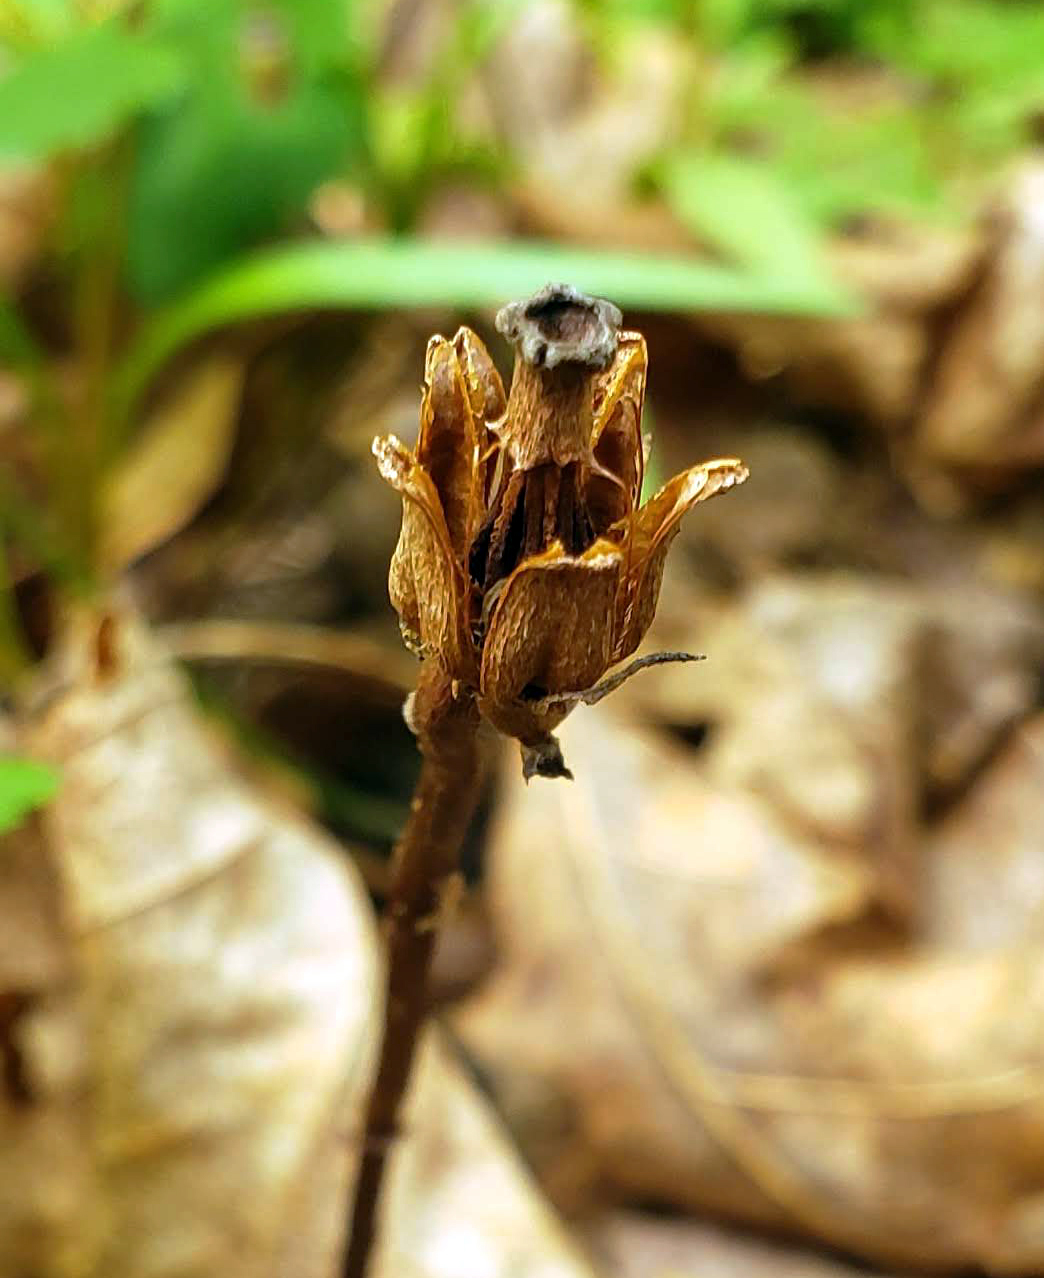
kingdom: Plantae
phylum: Tracheophyta
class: Magnoliopsida
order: Ericales
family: Ericaceae
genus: Monotropa
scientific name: Monotropa uniflora
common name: Convulsion root
